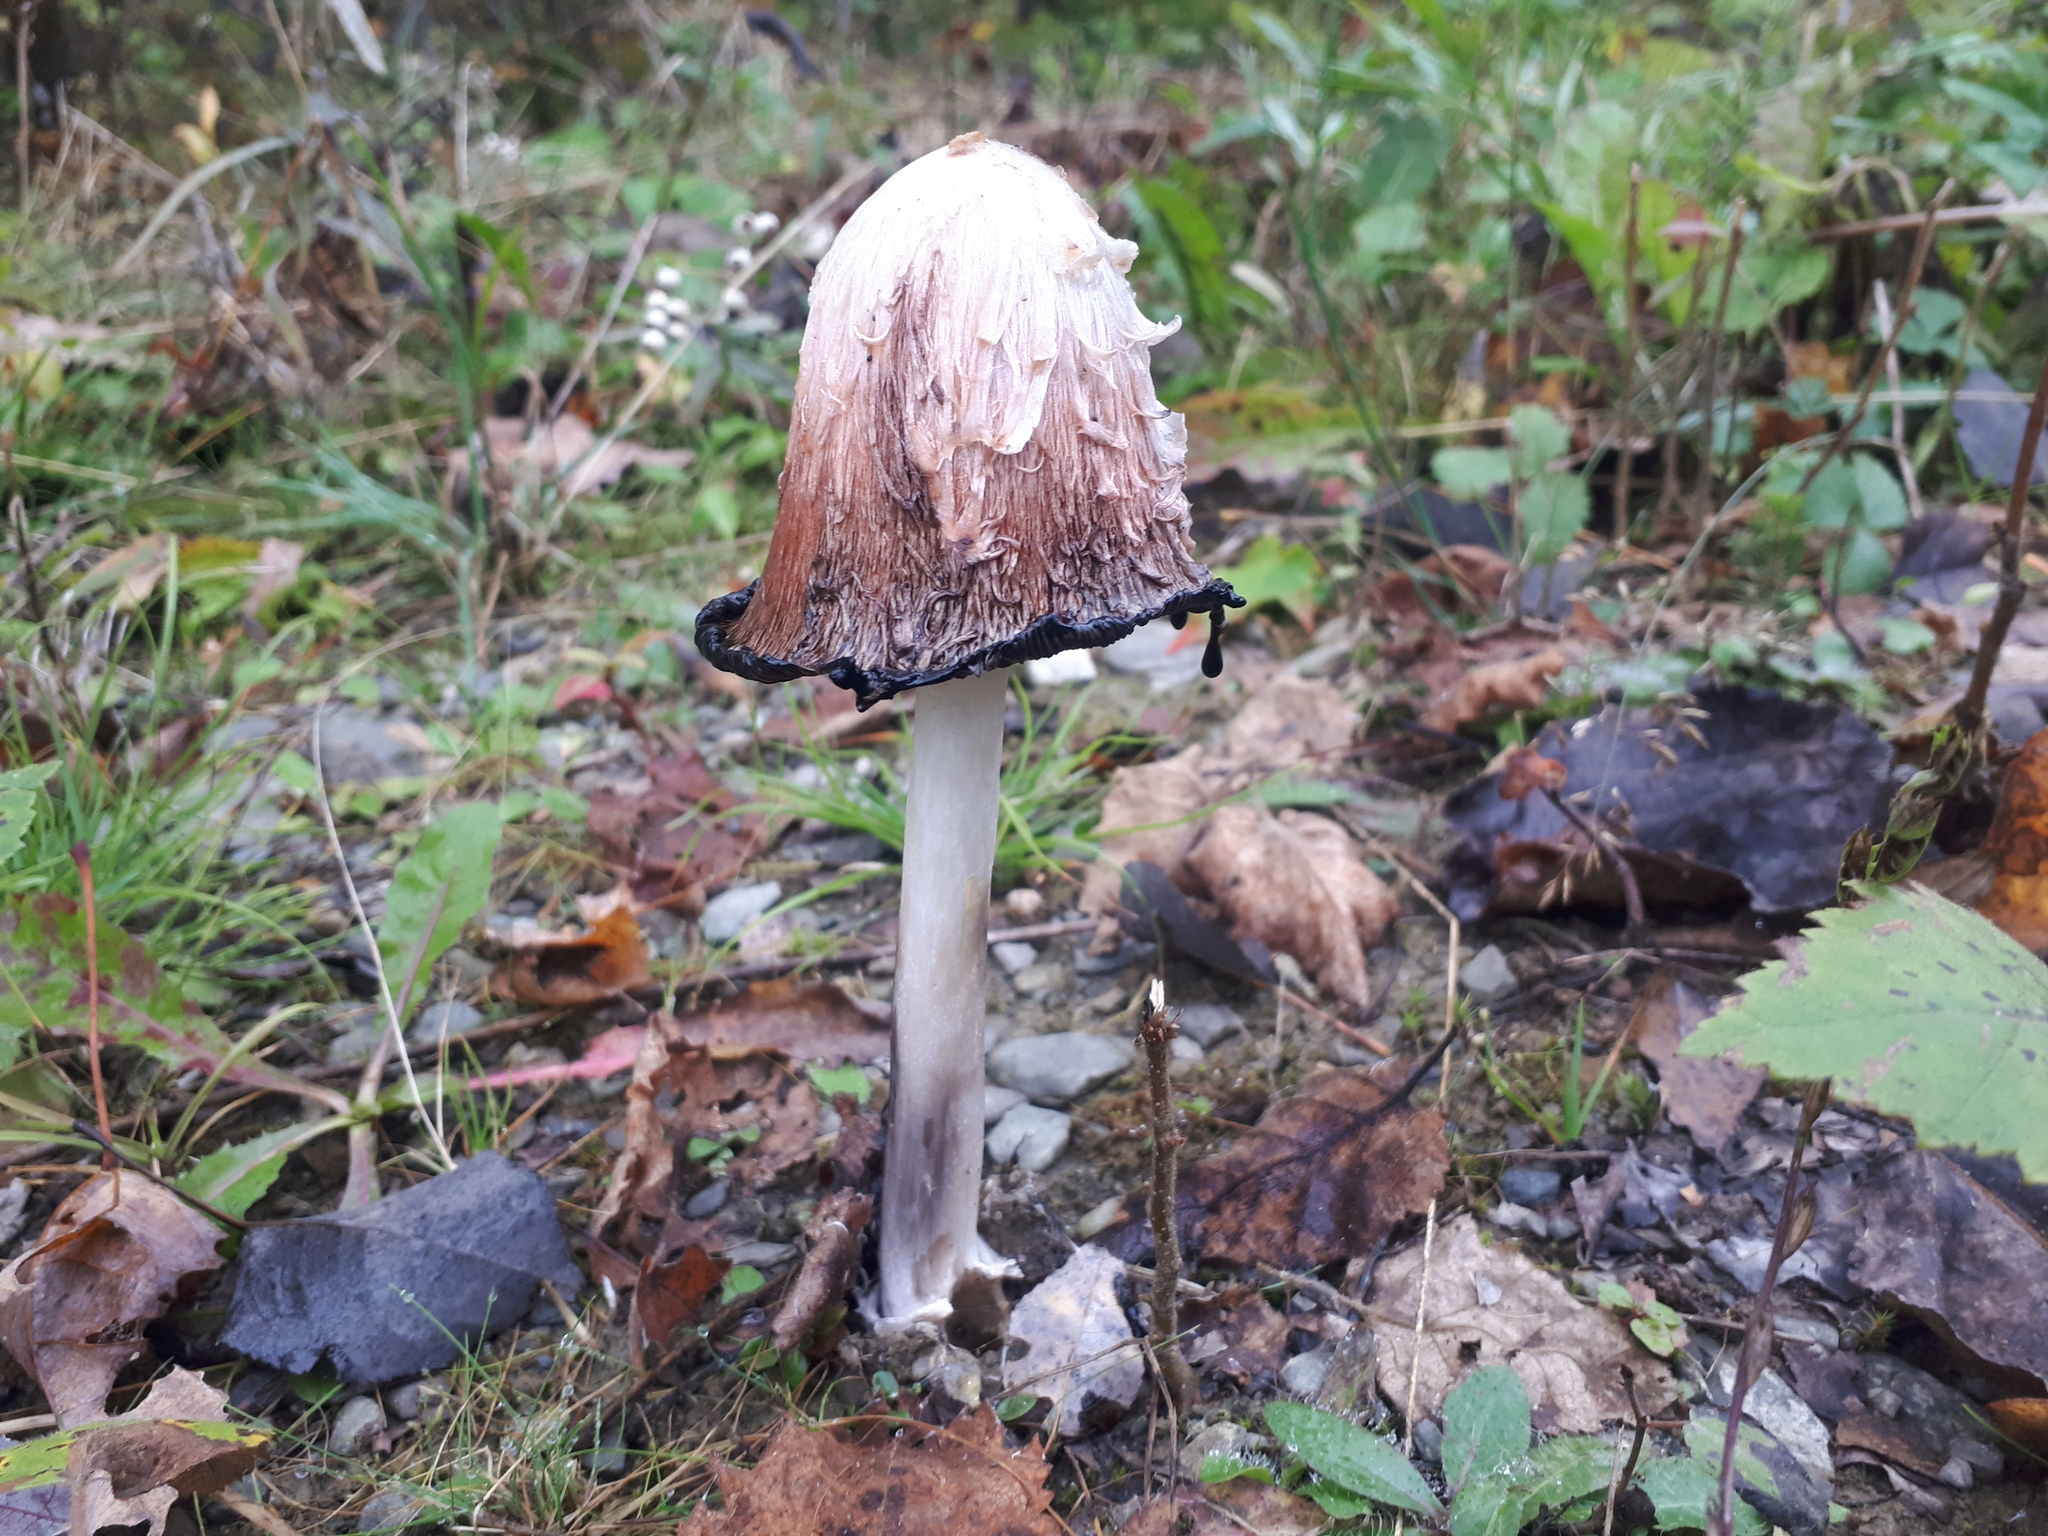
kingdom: Fungi
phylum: Basidiomycota
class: Agaricomycetes
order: Agaricales
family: Agaricaceae
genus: Coprinus
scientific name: Coprinus comatus
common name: Lawyer's wig
